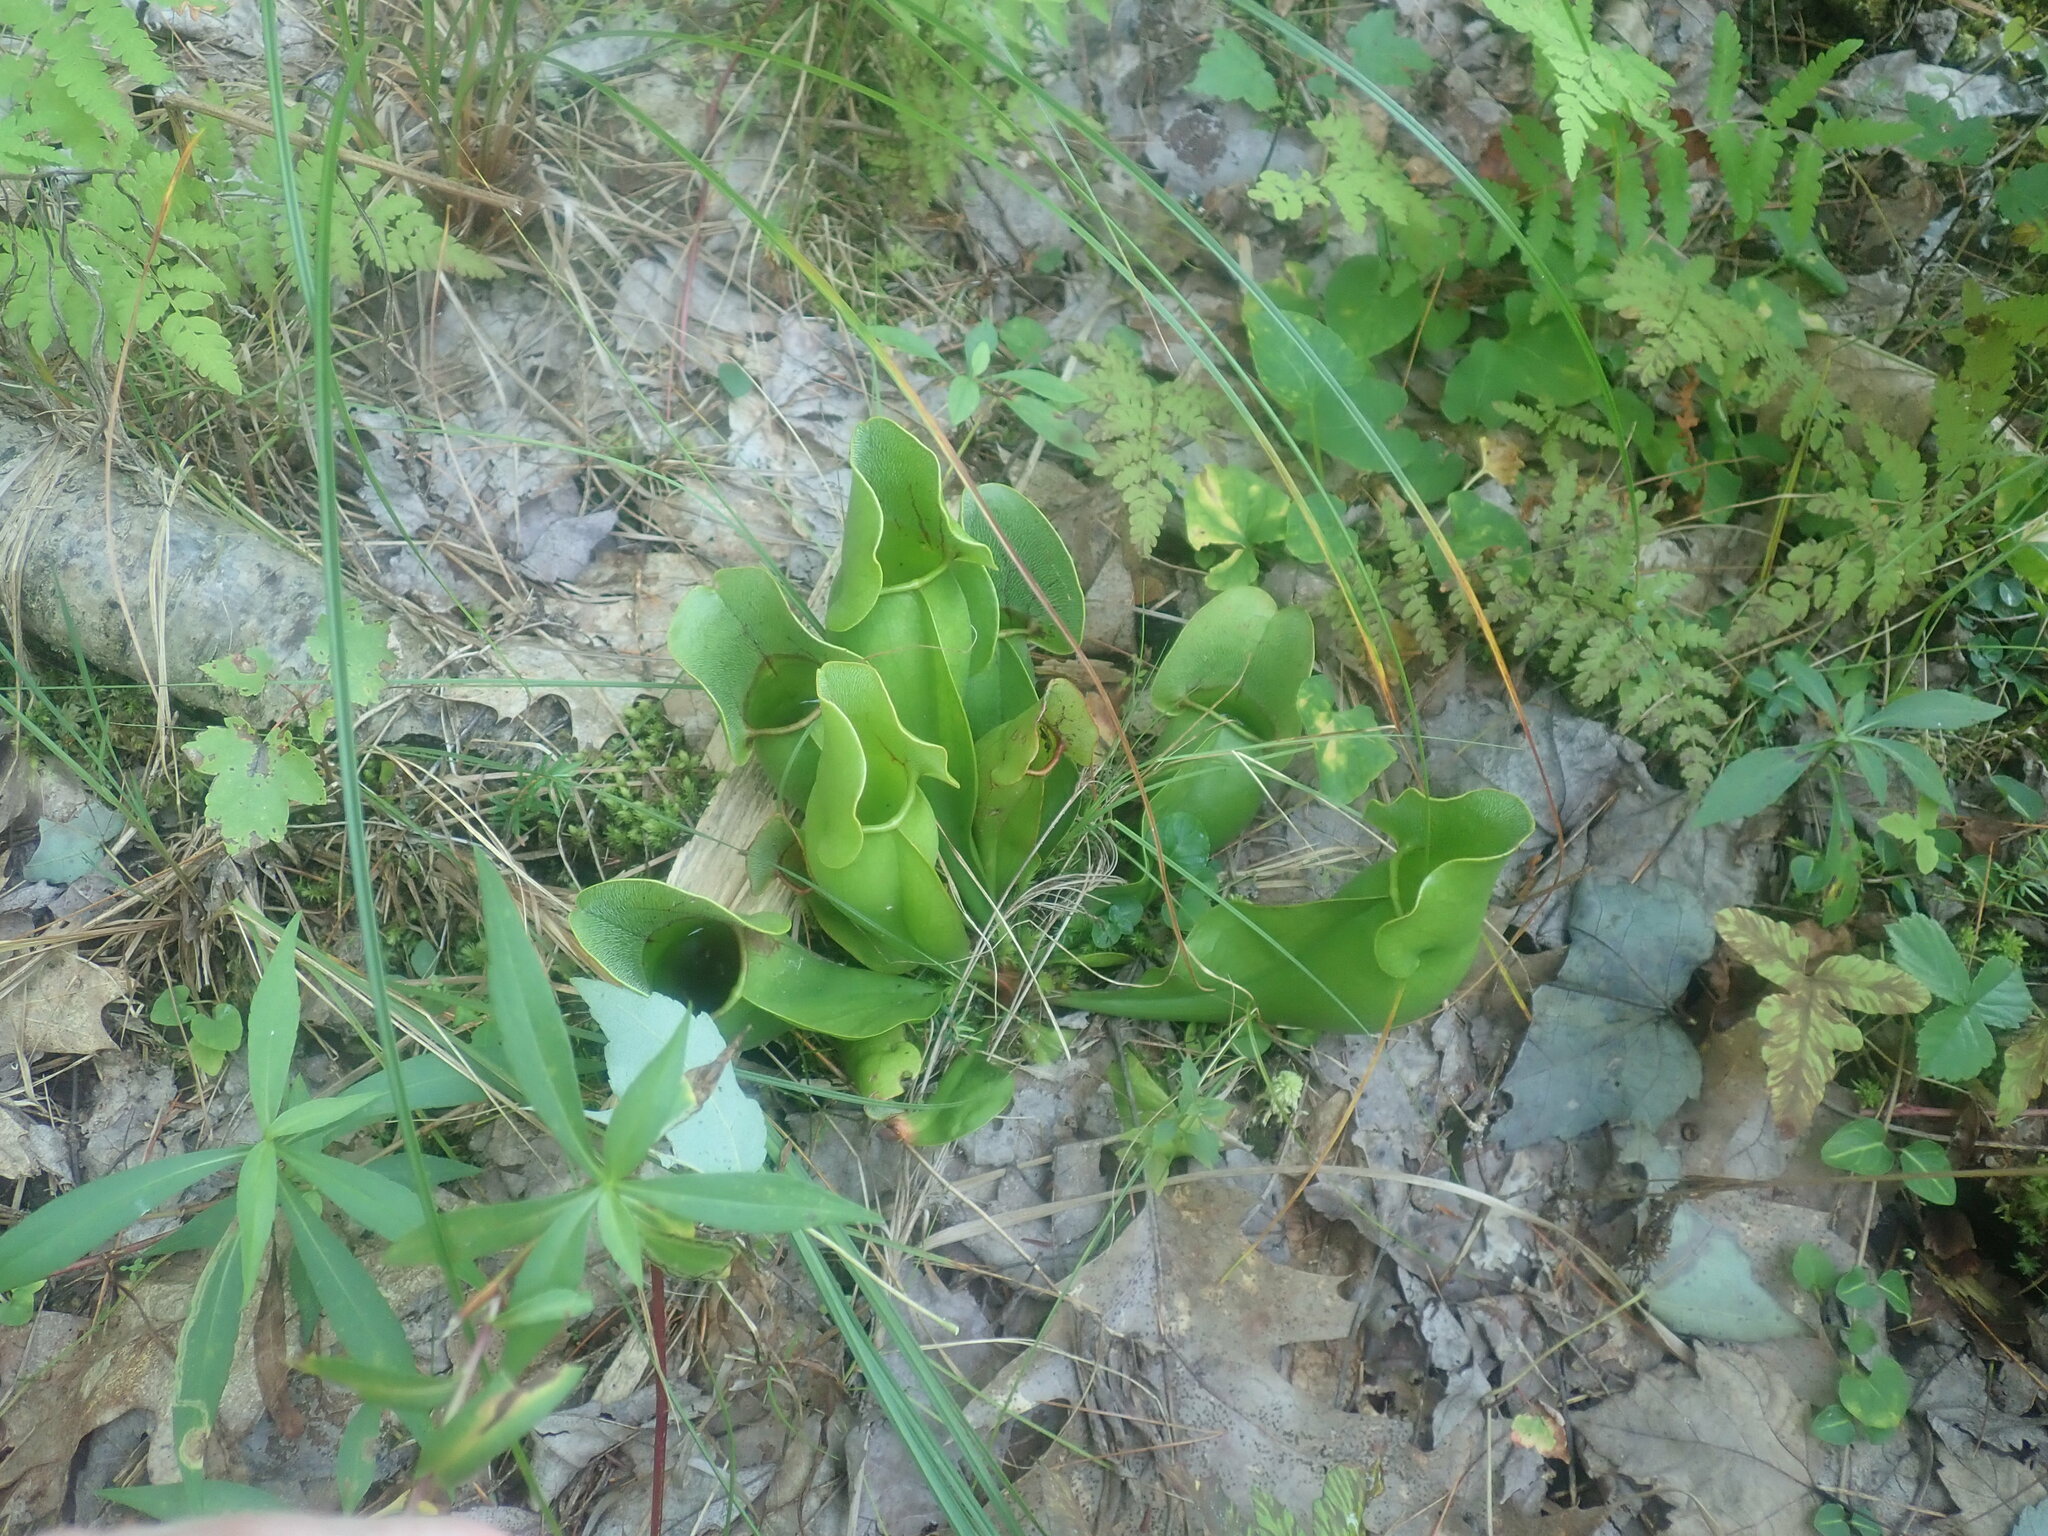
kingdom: Plantae
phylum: Tracheophyta
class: Magnoliopsida
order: Ericales
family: Sarraceniaceae
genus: Sarracenia
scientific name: Sarracenia purpurea
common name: Pitcherplant
